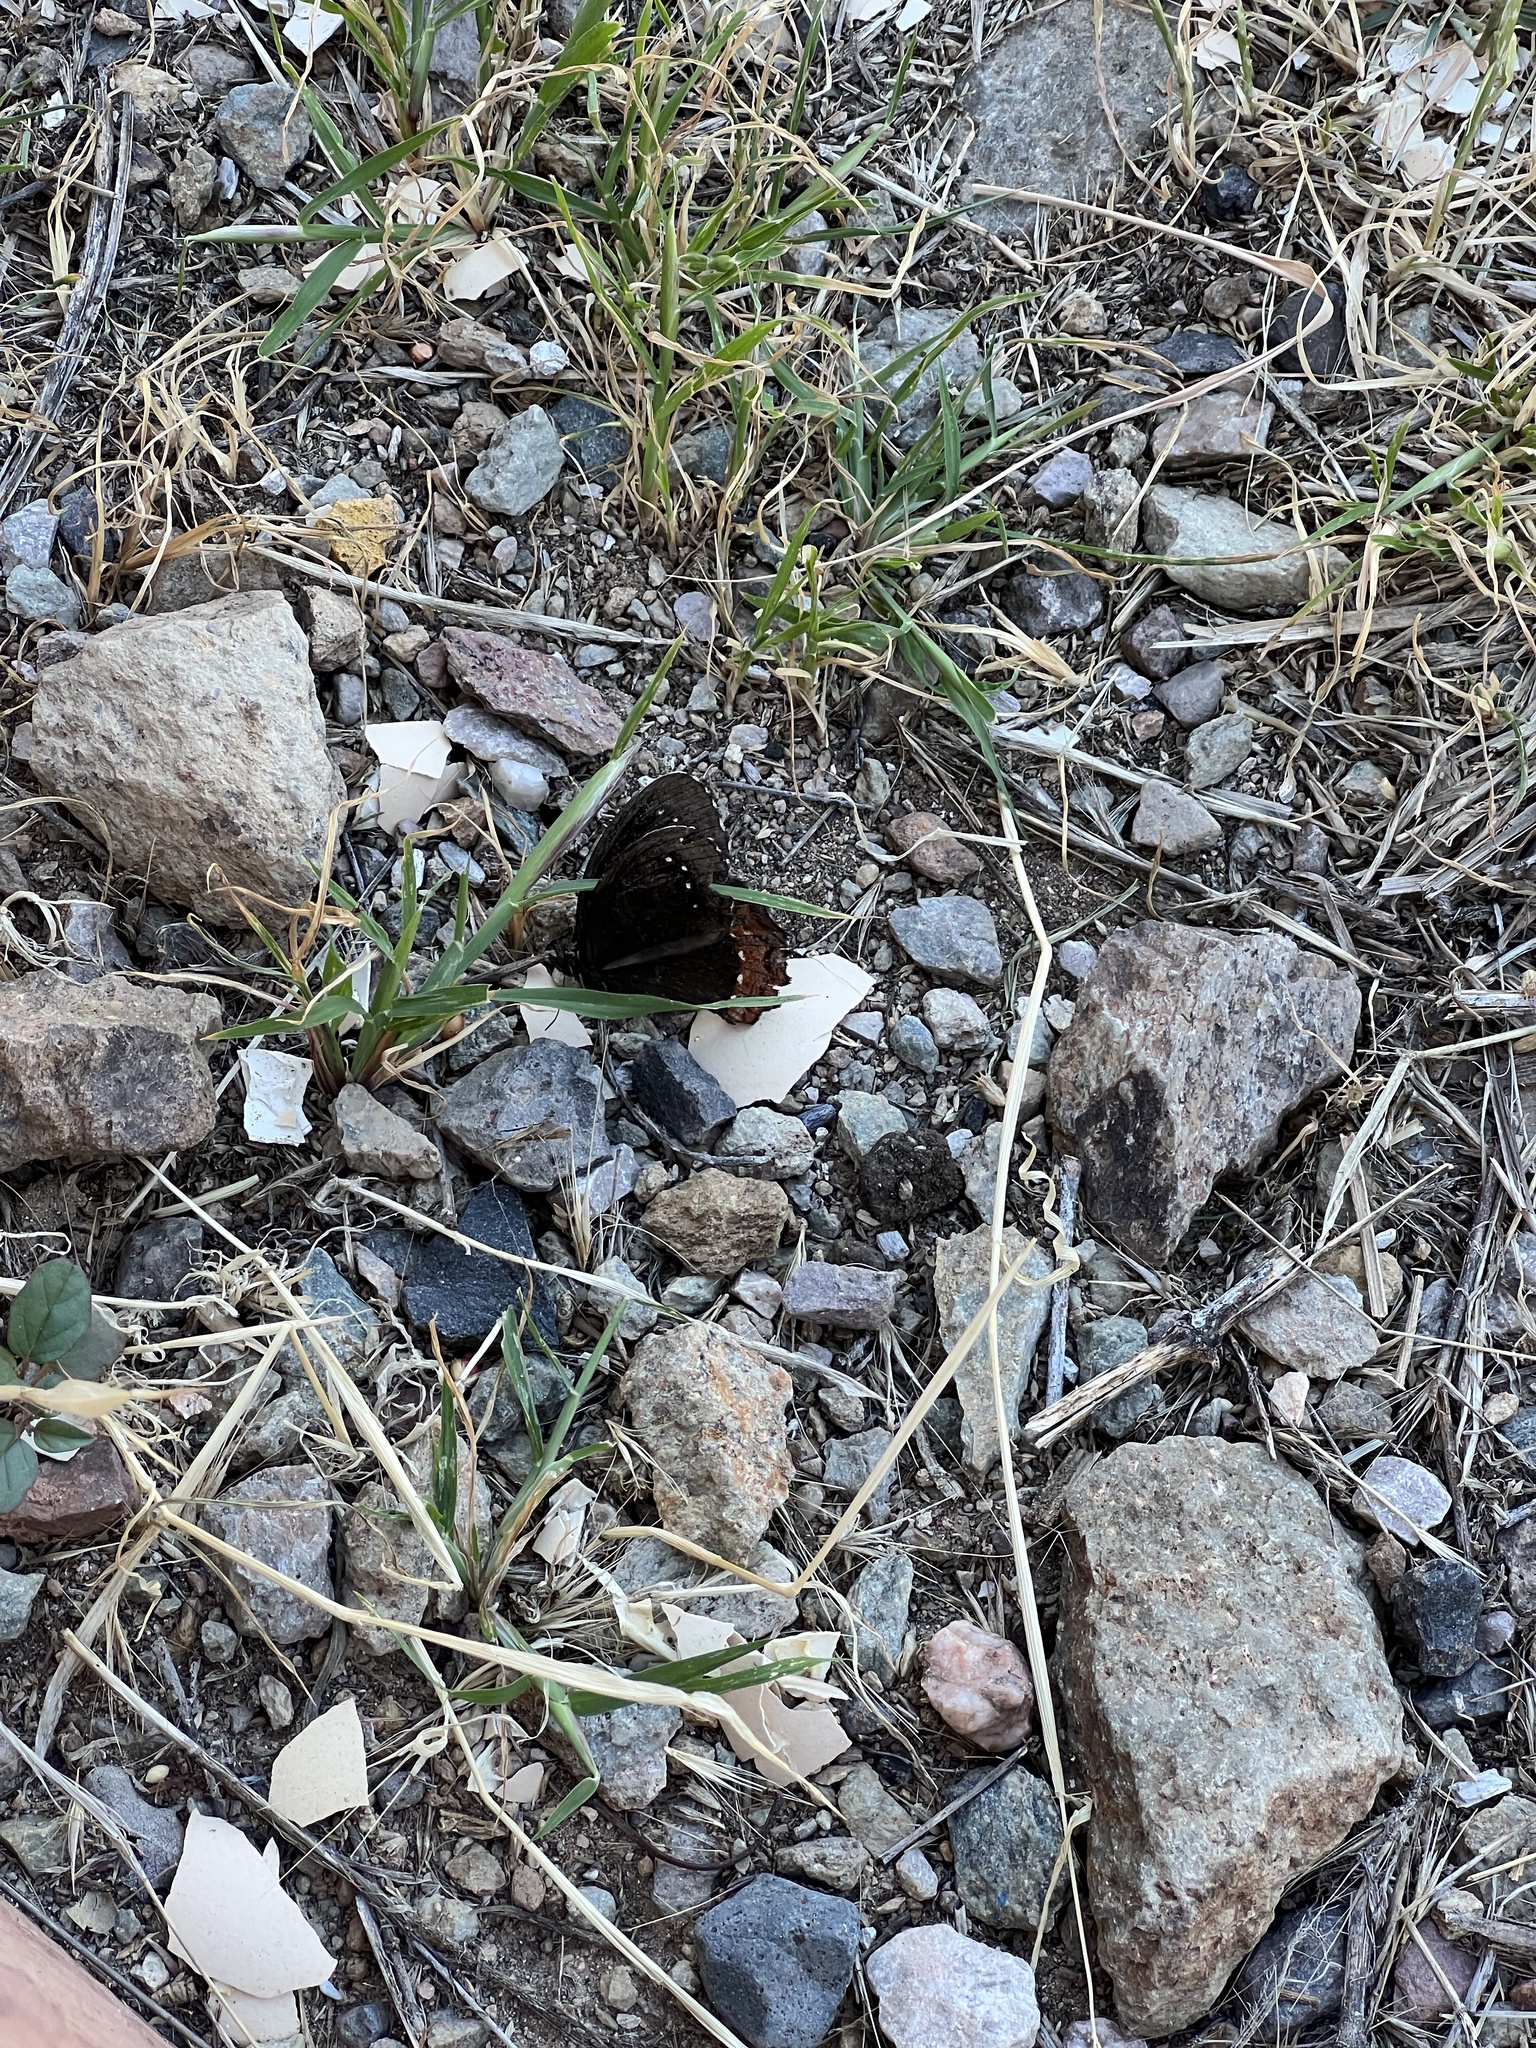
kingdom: Animalia
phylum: Arthropoda
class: Insecta
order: Lepidoptera
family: Nymphalidae
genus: Gyrocheilus
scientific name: Gyrocheilus patrobas
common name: Red-bordered satyr
